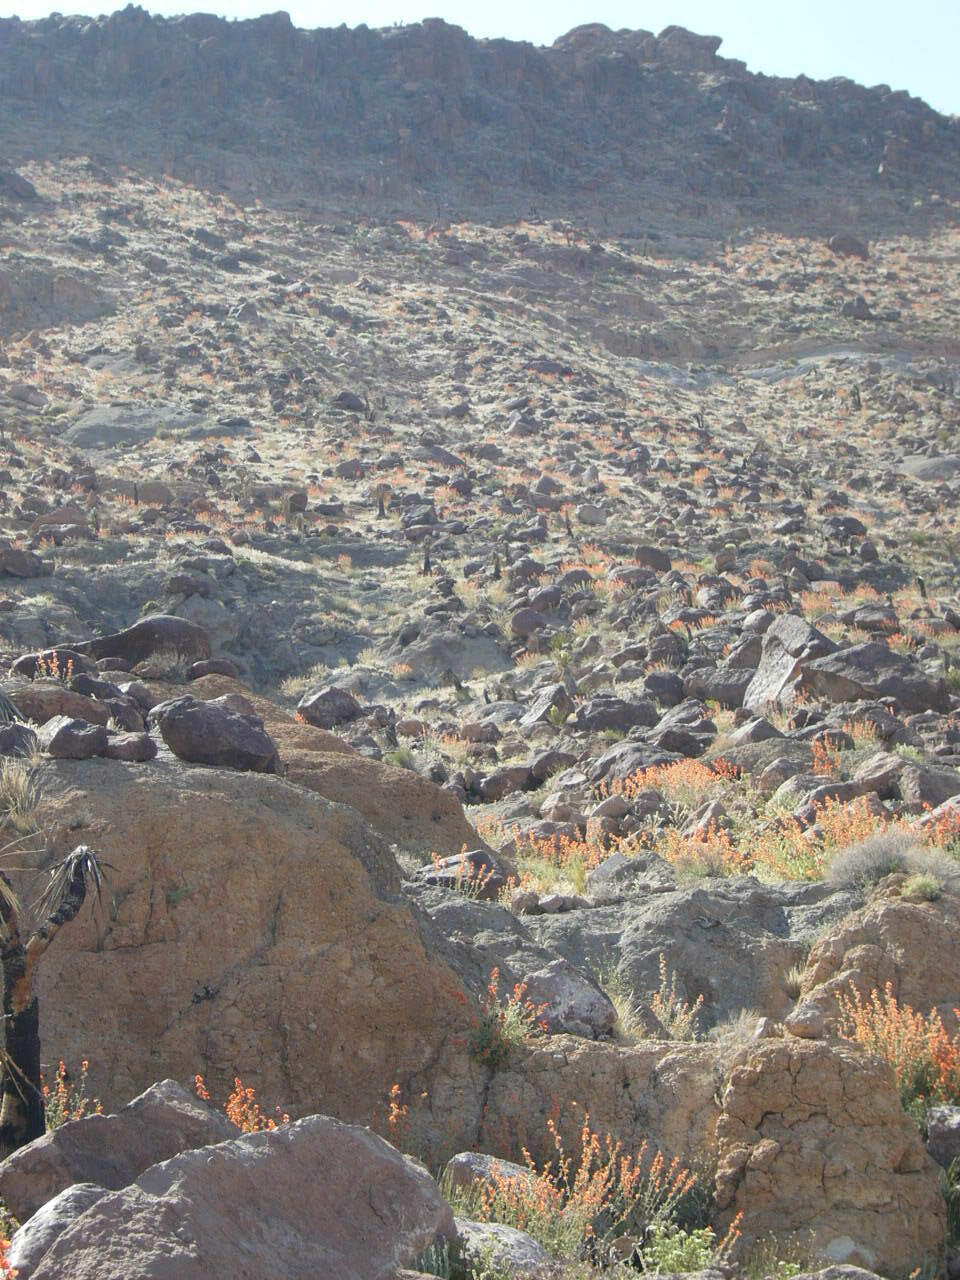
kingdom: Plantae
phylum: Tracheophyta
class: Magnoliopsida
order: Malvales
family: Malvaceae
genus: Sphaeralcea
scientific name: Sphaeralcea ambigua
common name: Apricot globe-mallow
